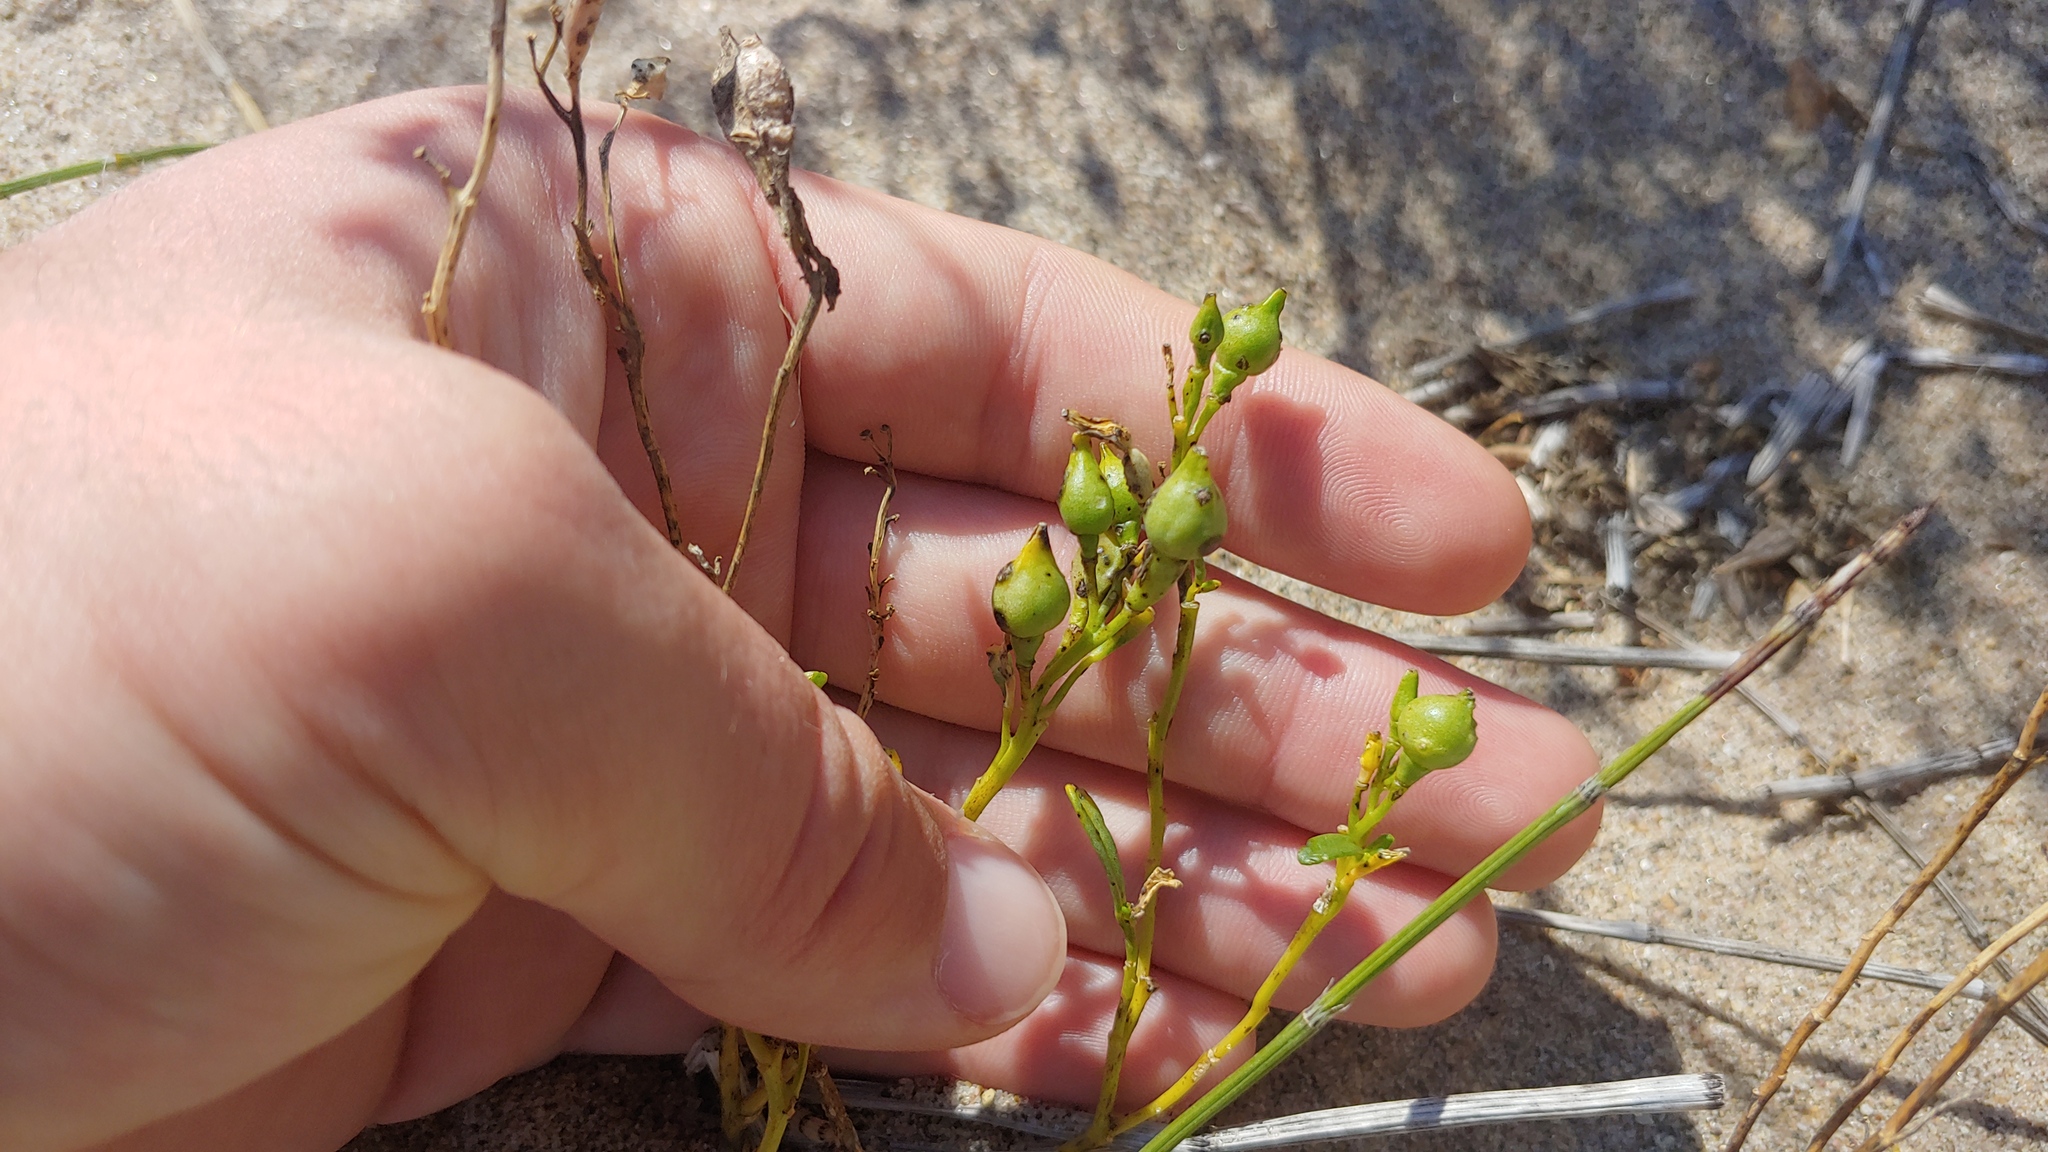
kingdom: Plantae
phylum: Tracheophyta
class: Magnoliopsida
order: Brassicales
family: Brassicaceae
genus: Cakile
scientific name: Cakile edentula
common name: American sea rocket
